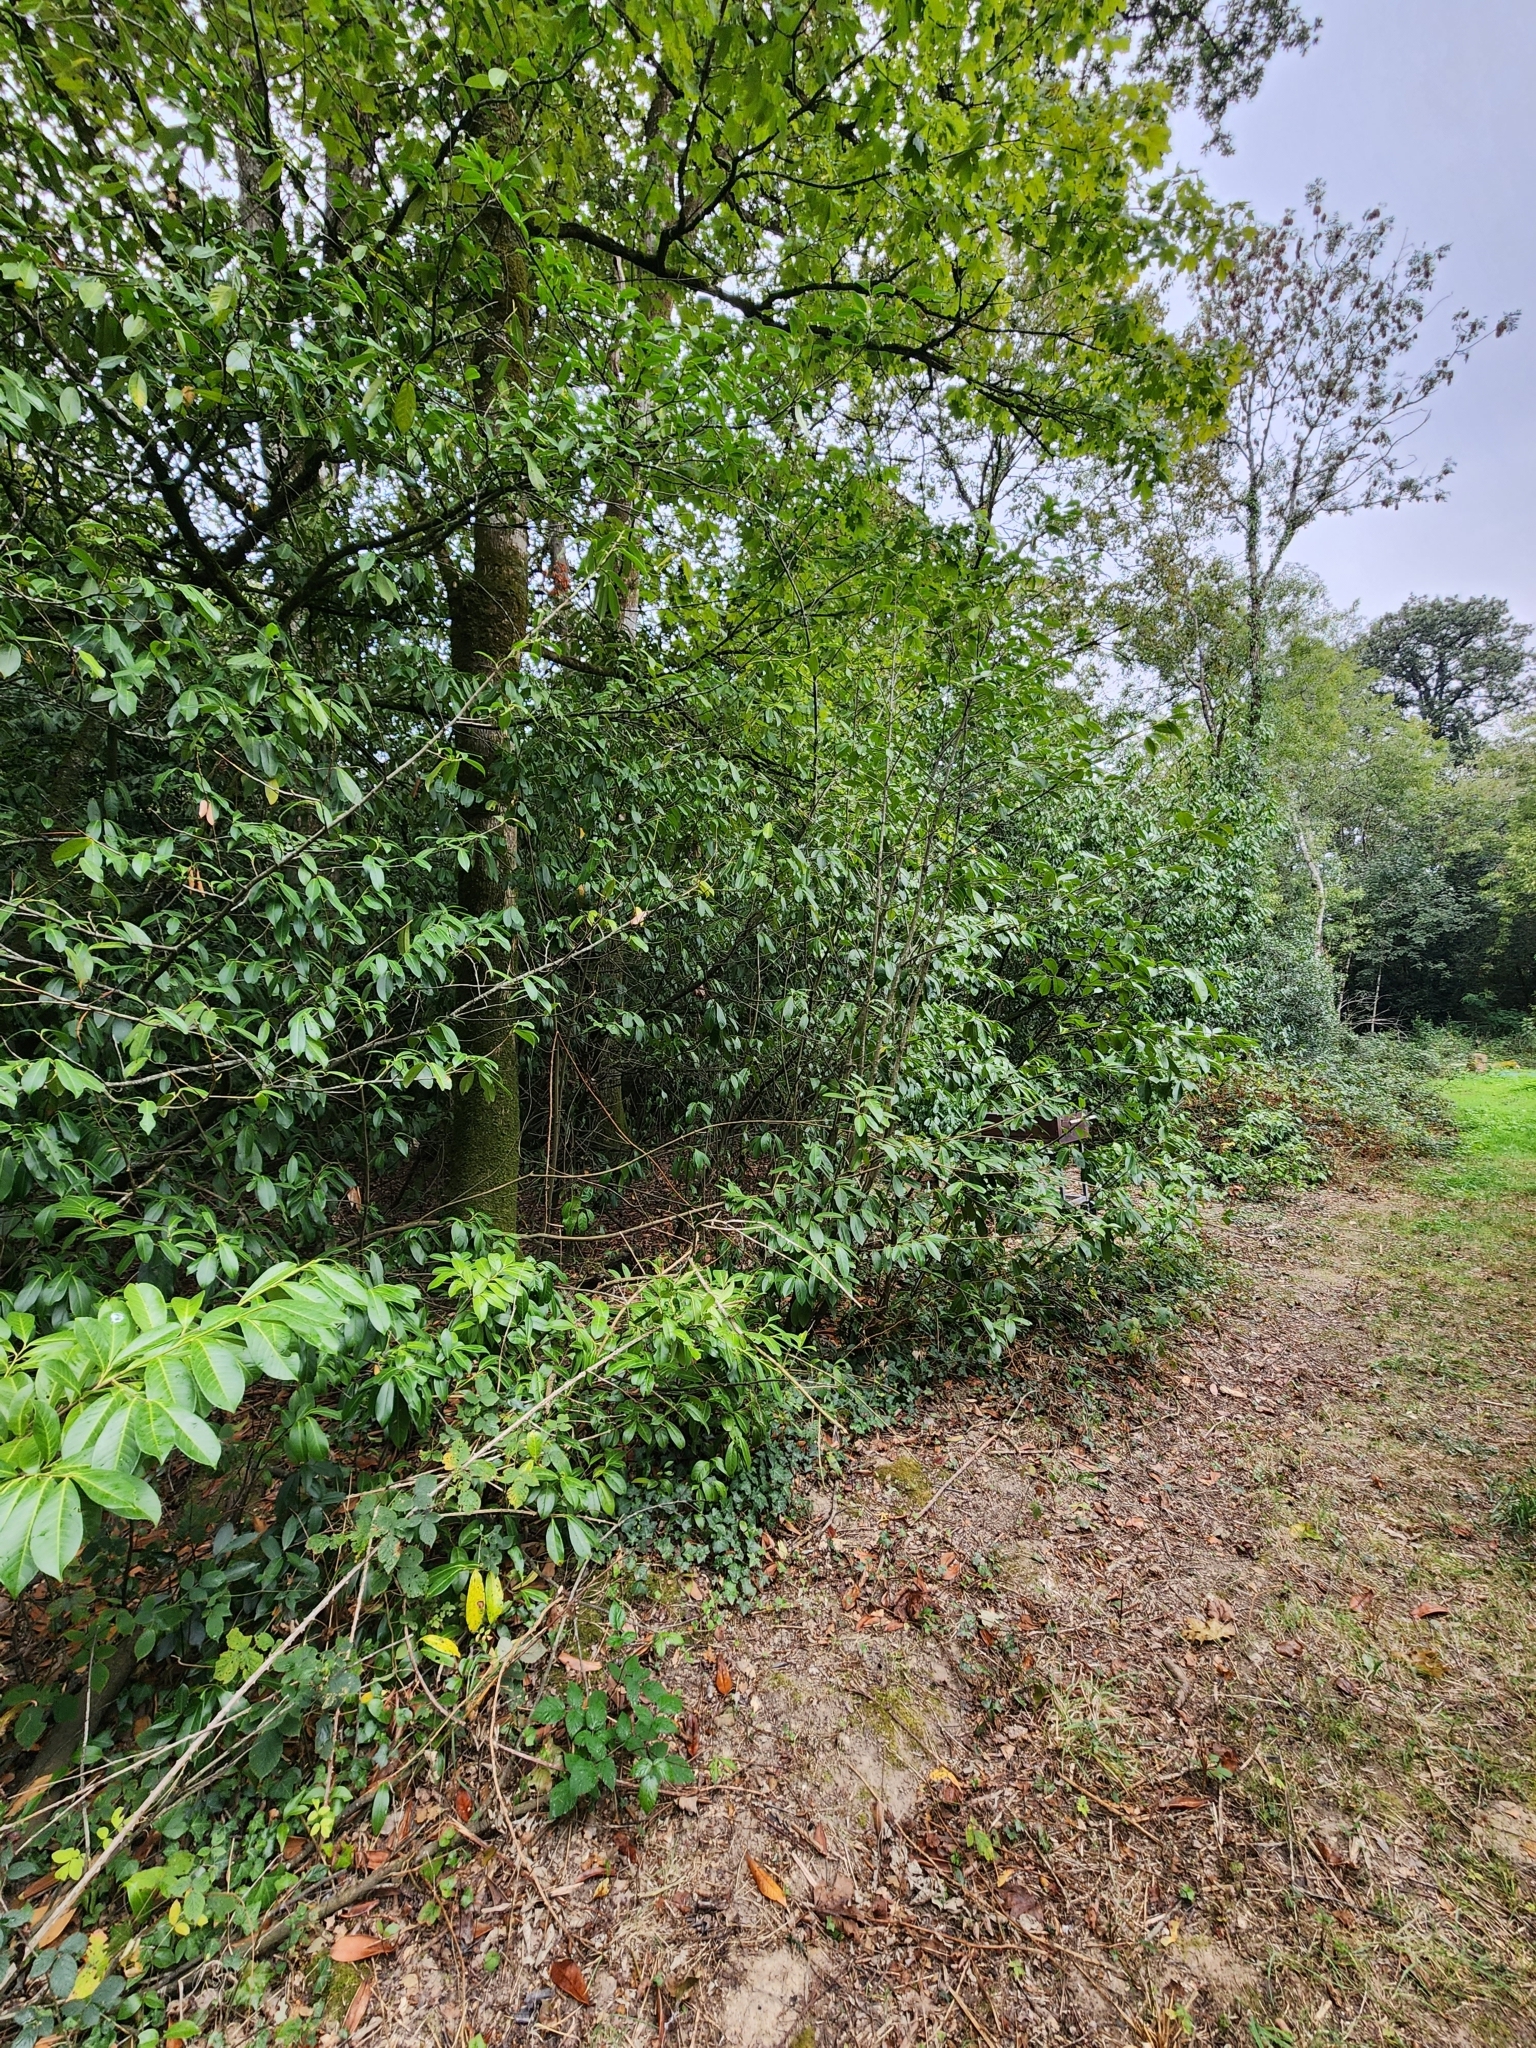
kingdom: Plantae
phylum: Tracheophyta
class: Magnoliopsida
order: Rosales
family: Rosaceae
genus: Prunus
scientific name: Prunus laurocerasus
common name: Cherry laurel
